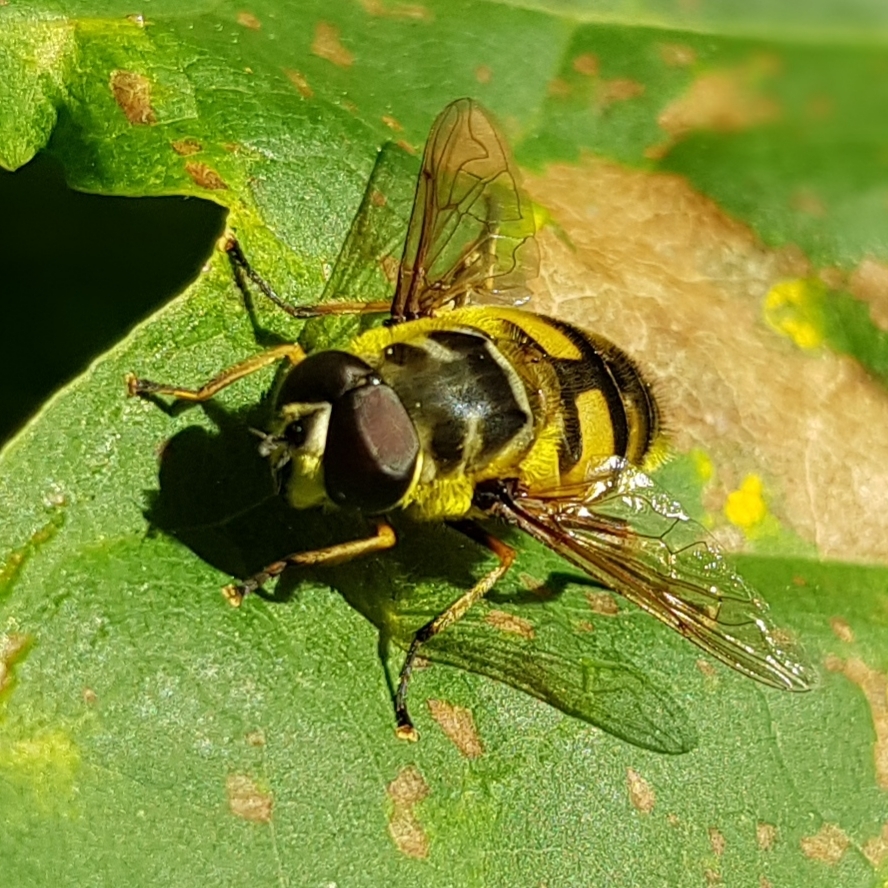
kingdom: Animalia
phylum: Arthropoda
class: Insecta
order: Diptera
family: Syrphidae
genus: Myathropa
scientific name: Myathropa florea
